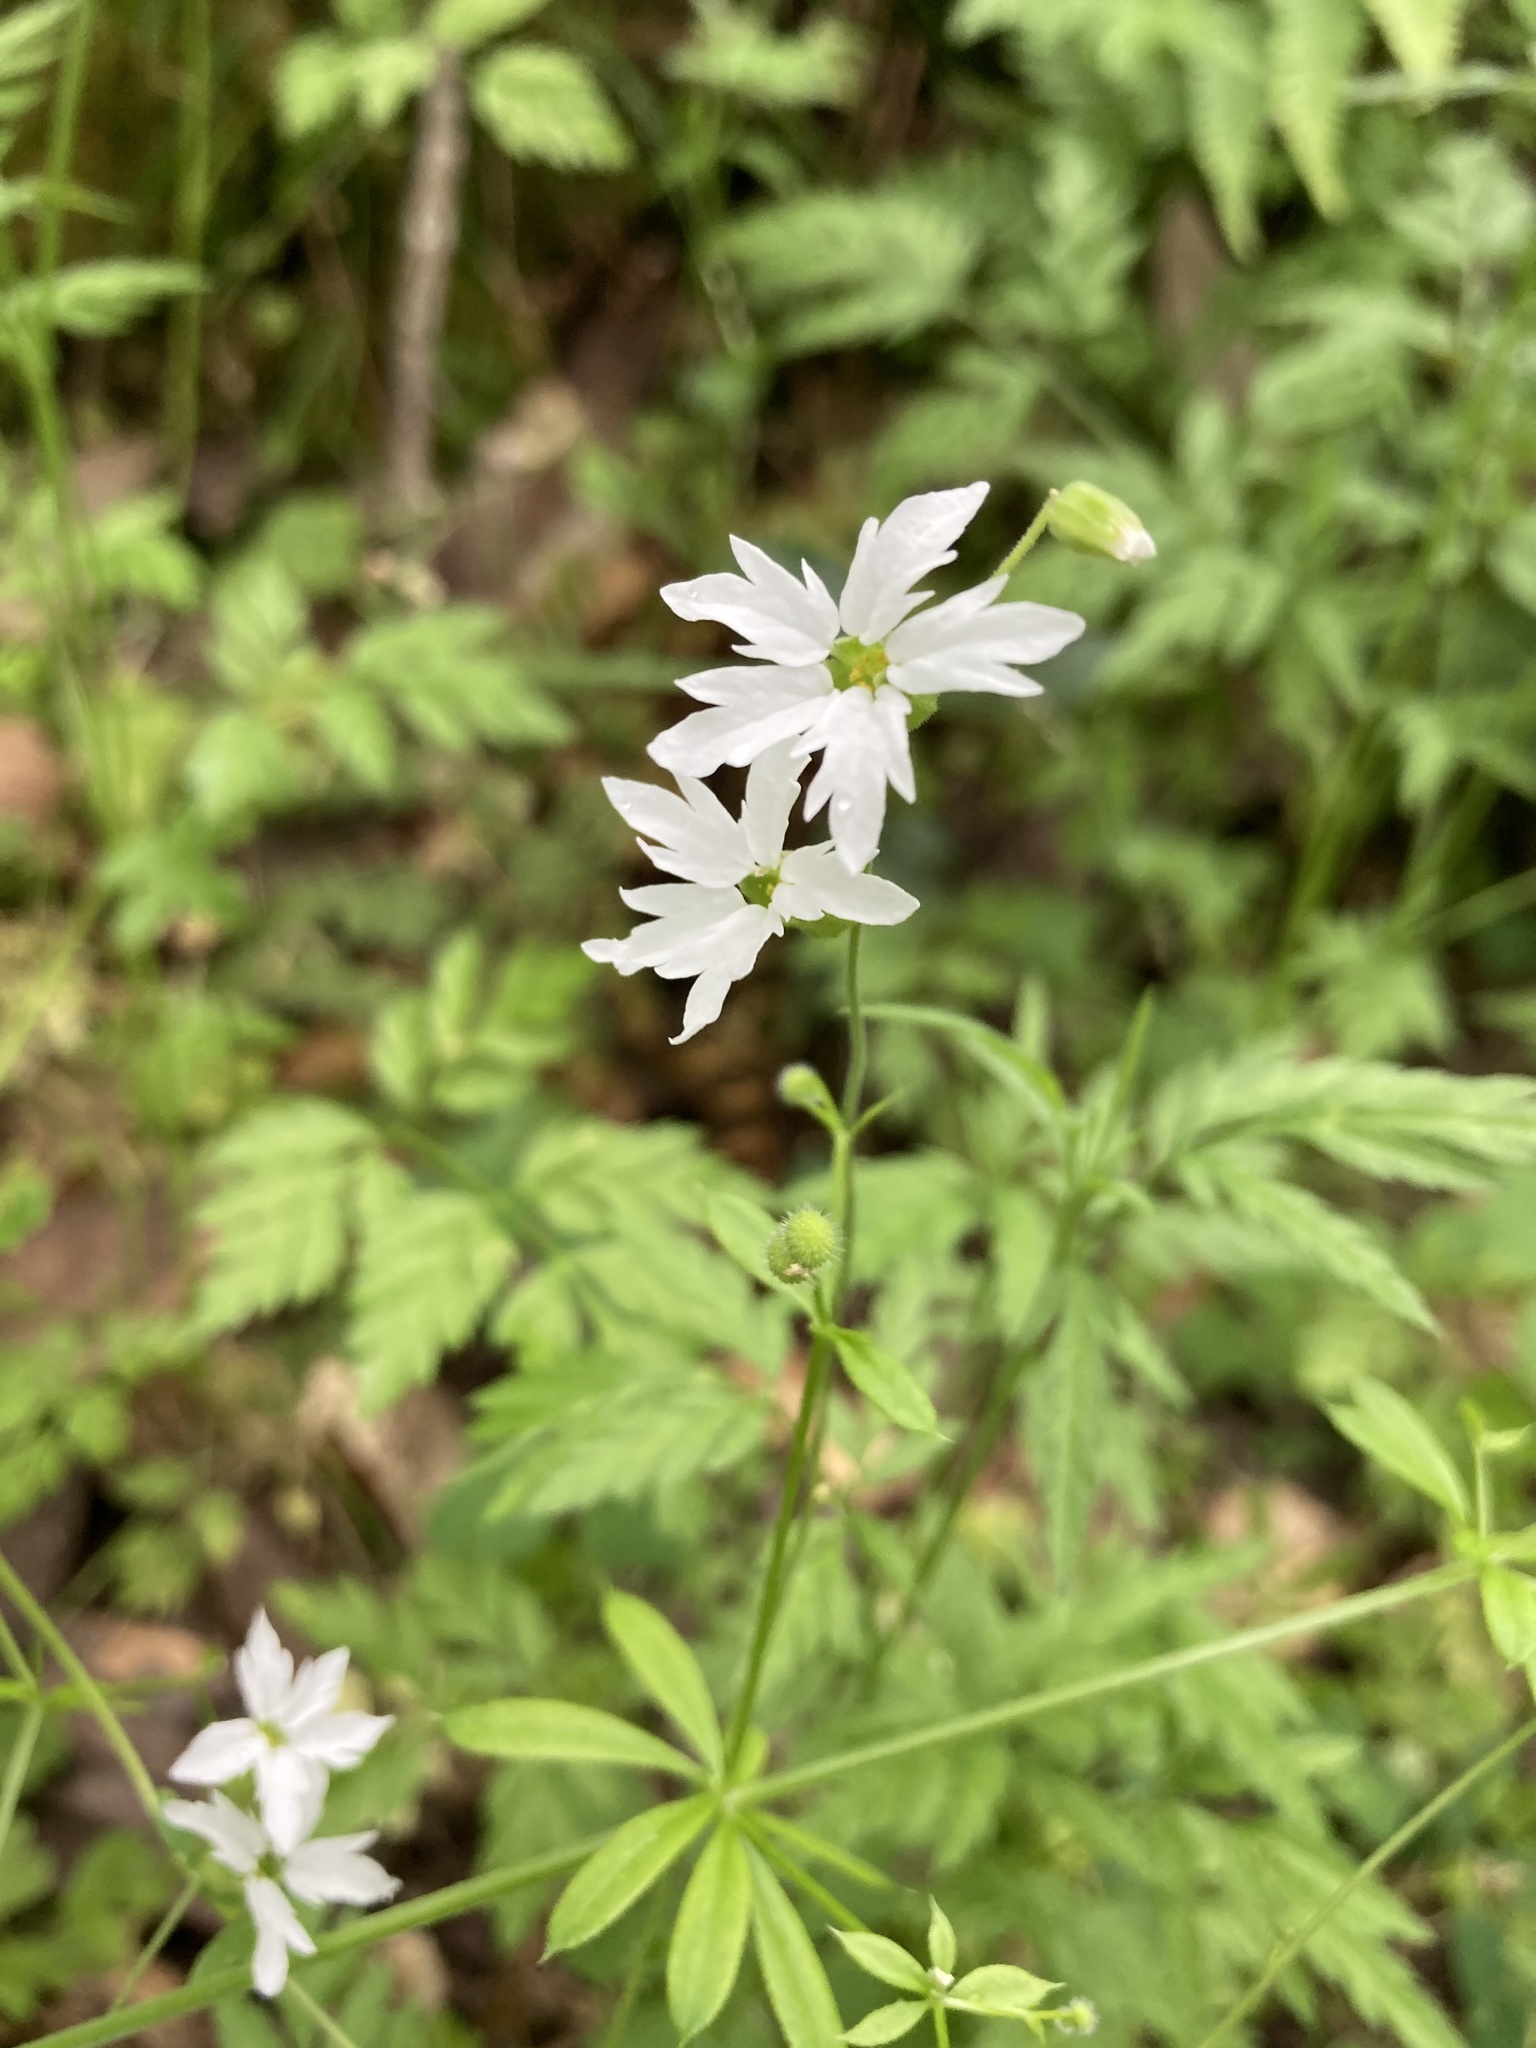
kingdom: Plantae
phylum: Tracheophyta
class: Magnoliopsida
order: Saxifragales
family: Saxifragaceae
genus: Lithophragma
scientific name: Lithophragma heterophyllum
